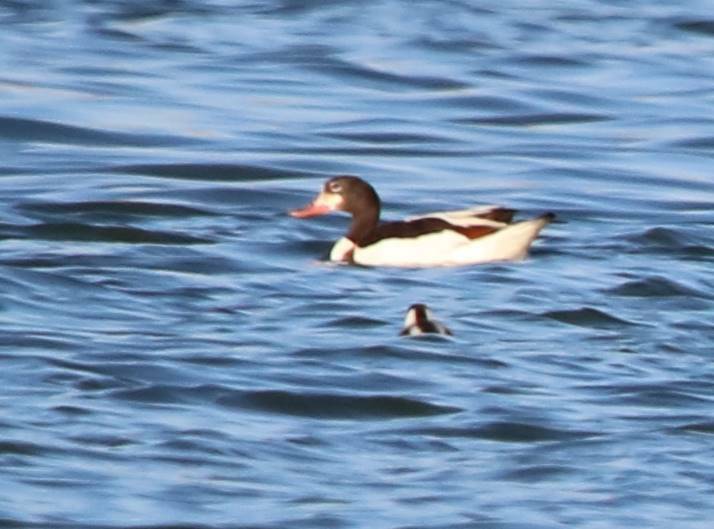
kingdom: Animalia
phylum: Chordata
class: Aves
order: Anseriformes
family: Anatidae
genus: Tadorna
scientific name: Tadorna tadorna
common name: Common shelduck
